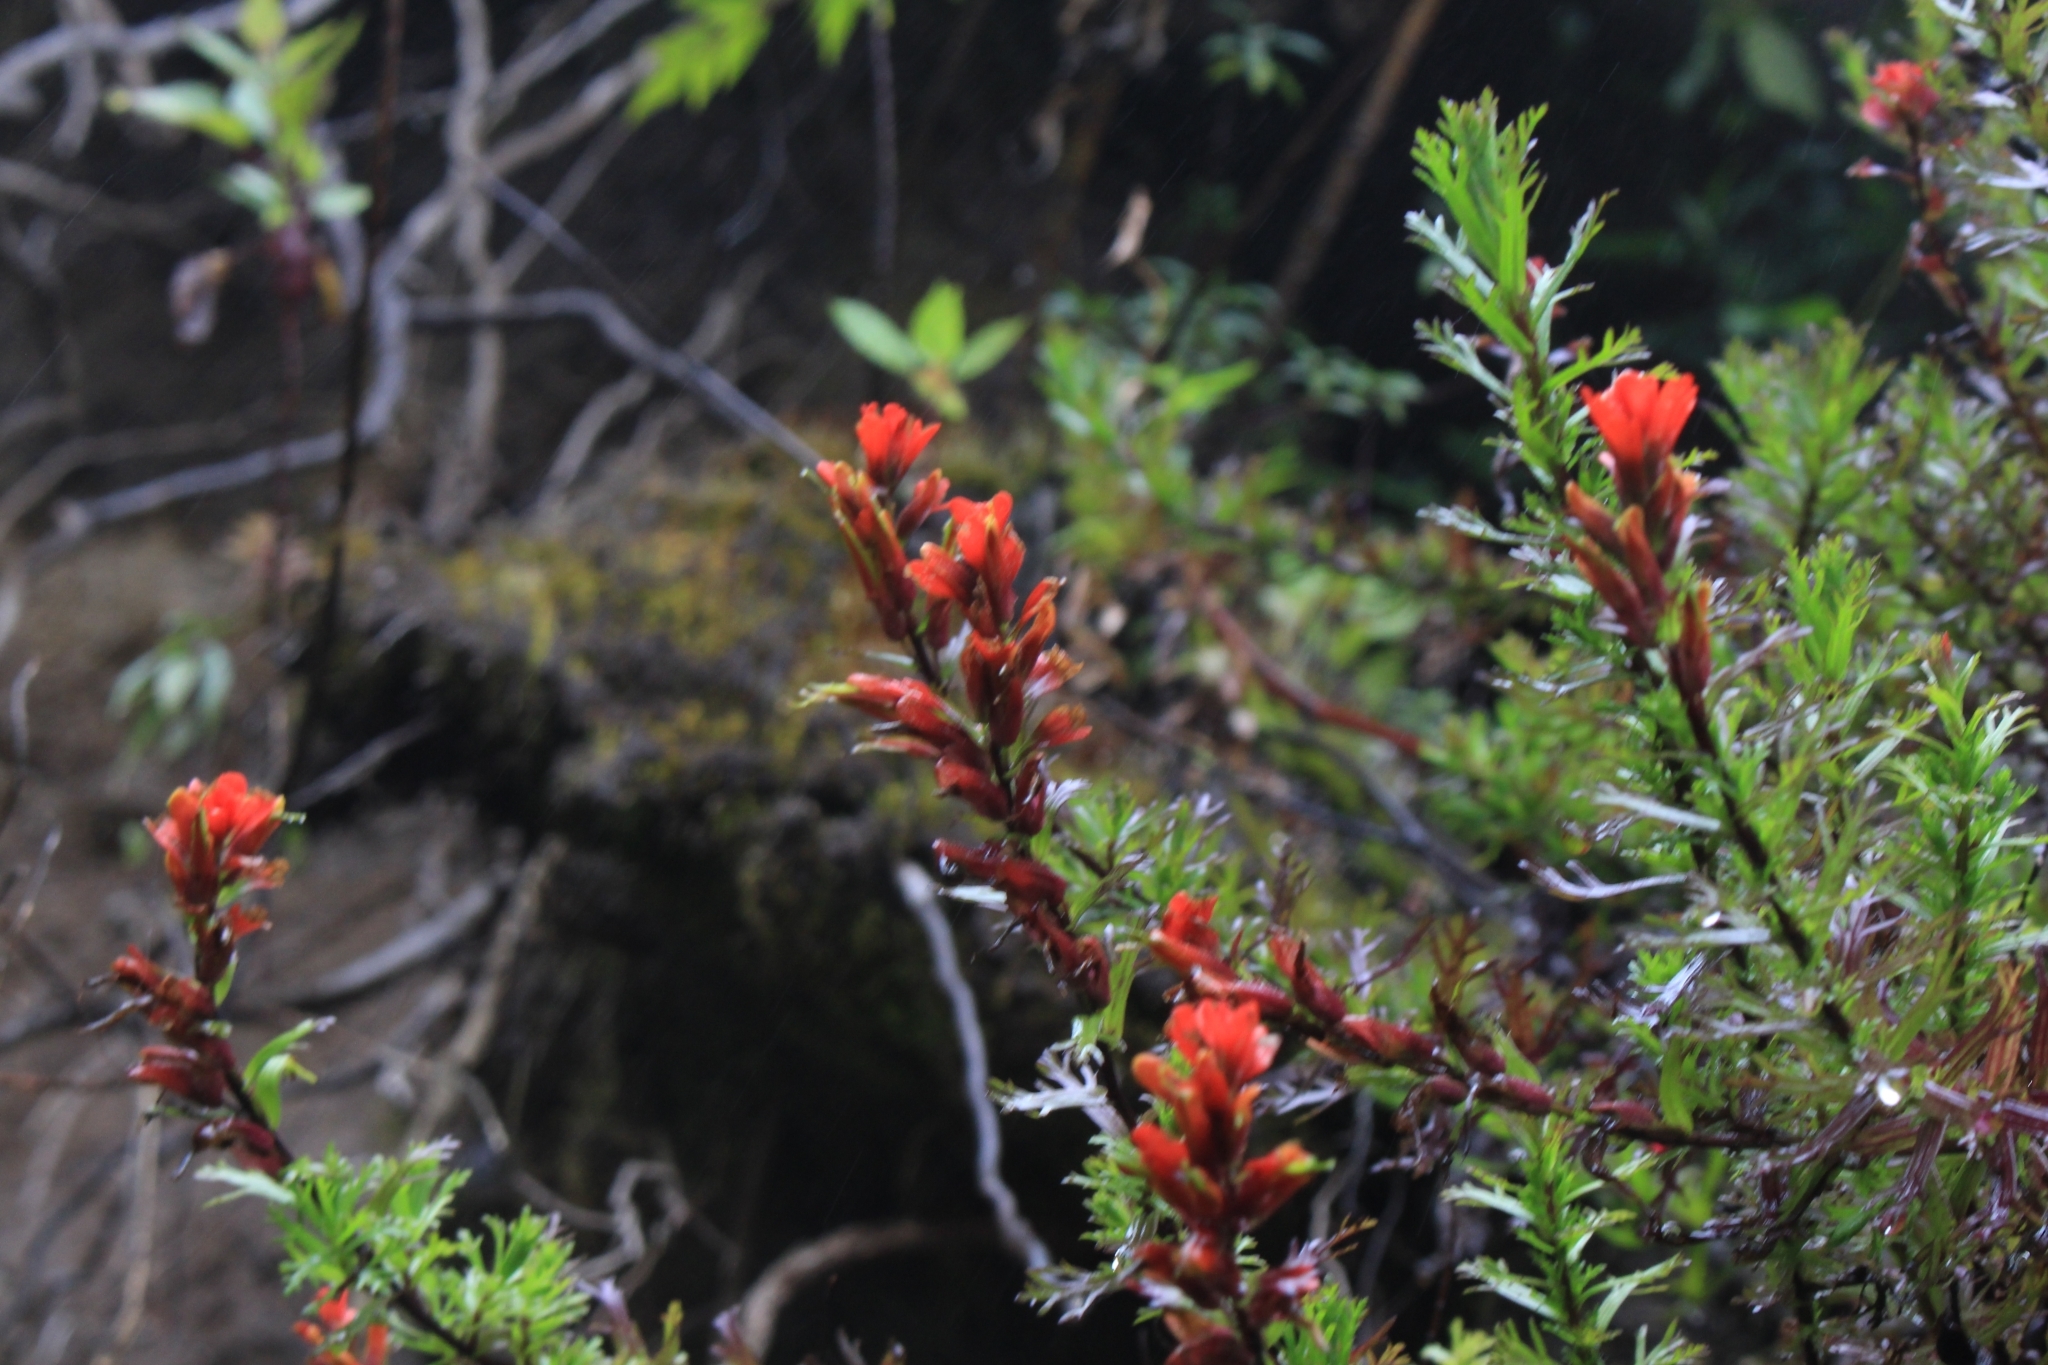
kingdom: Plantae
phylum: Tracheophyta
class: Magnoliopsida
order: Lamiales
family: Orobanchaceae
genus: Castilleja
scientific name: Castilleja irasuensis
